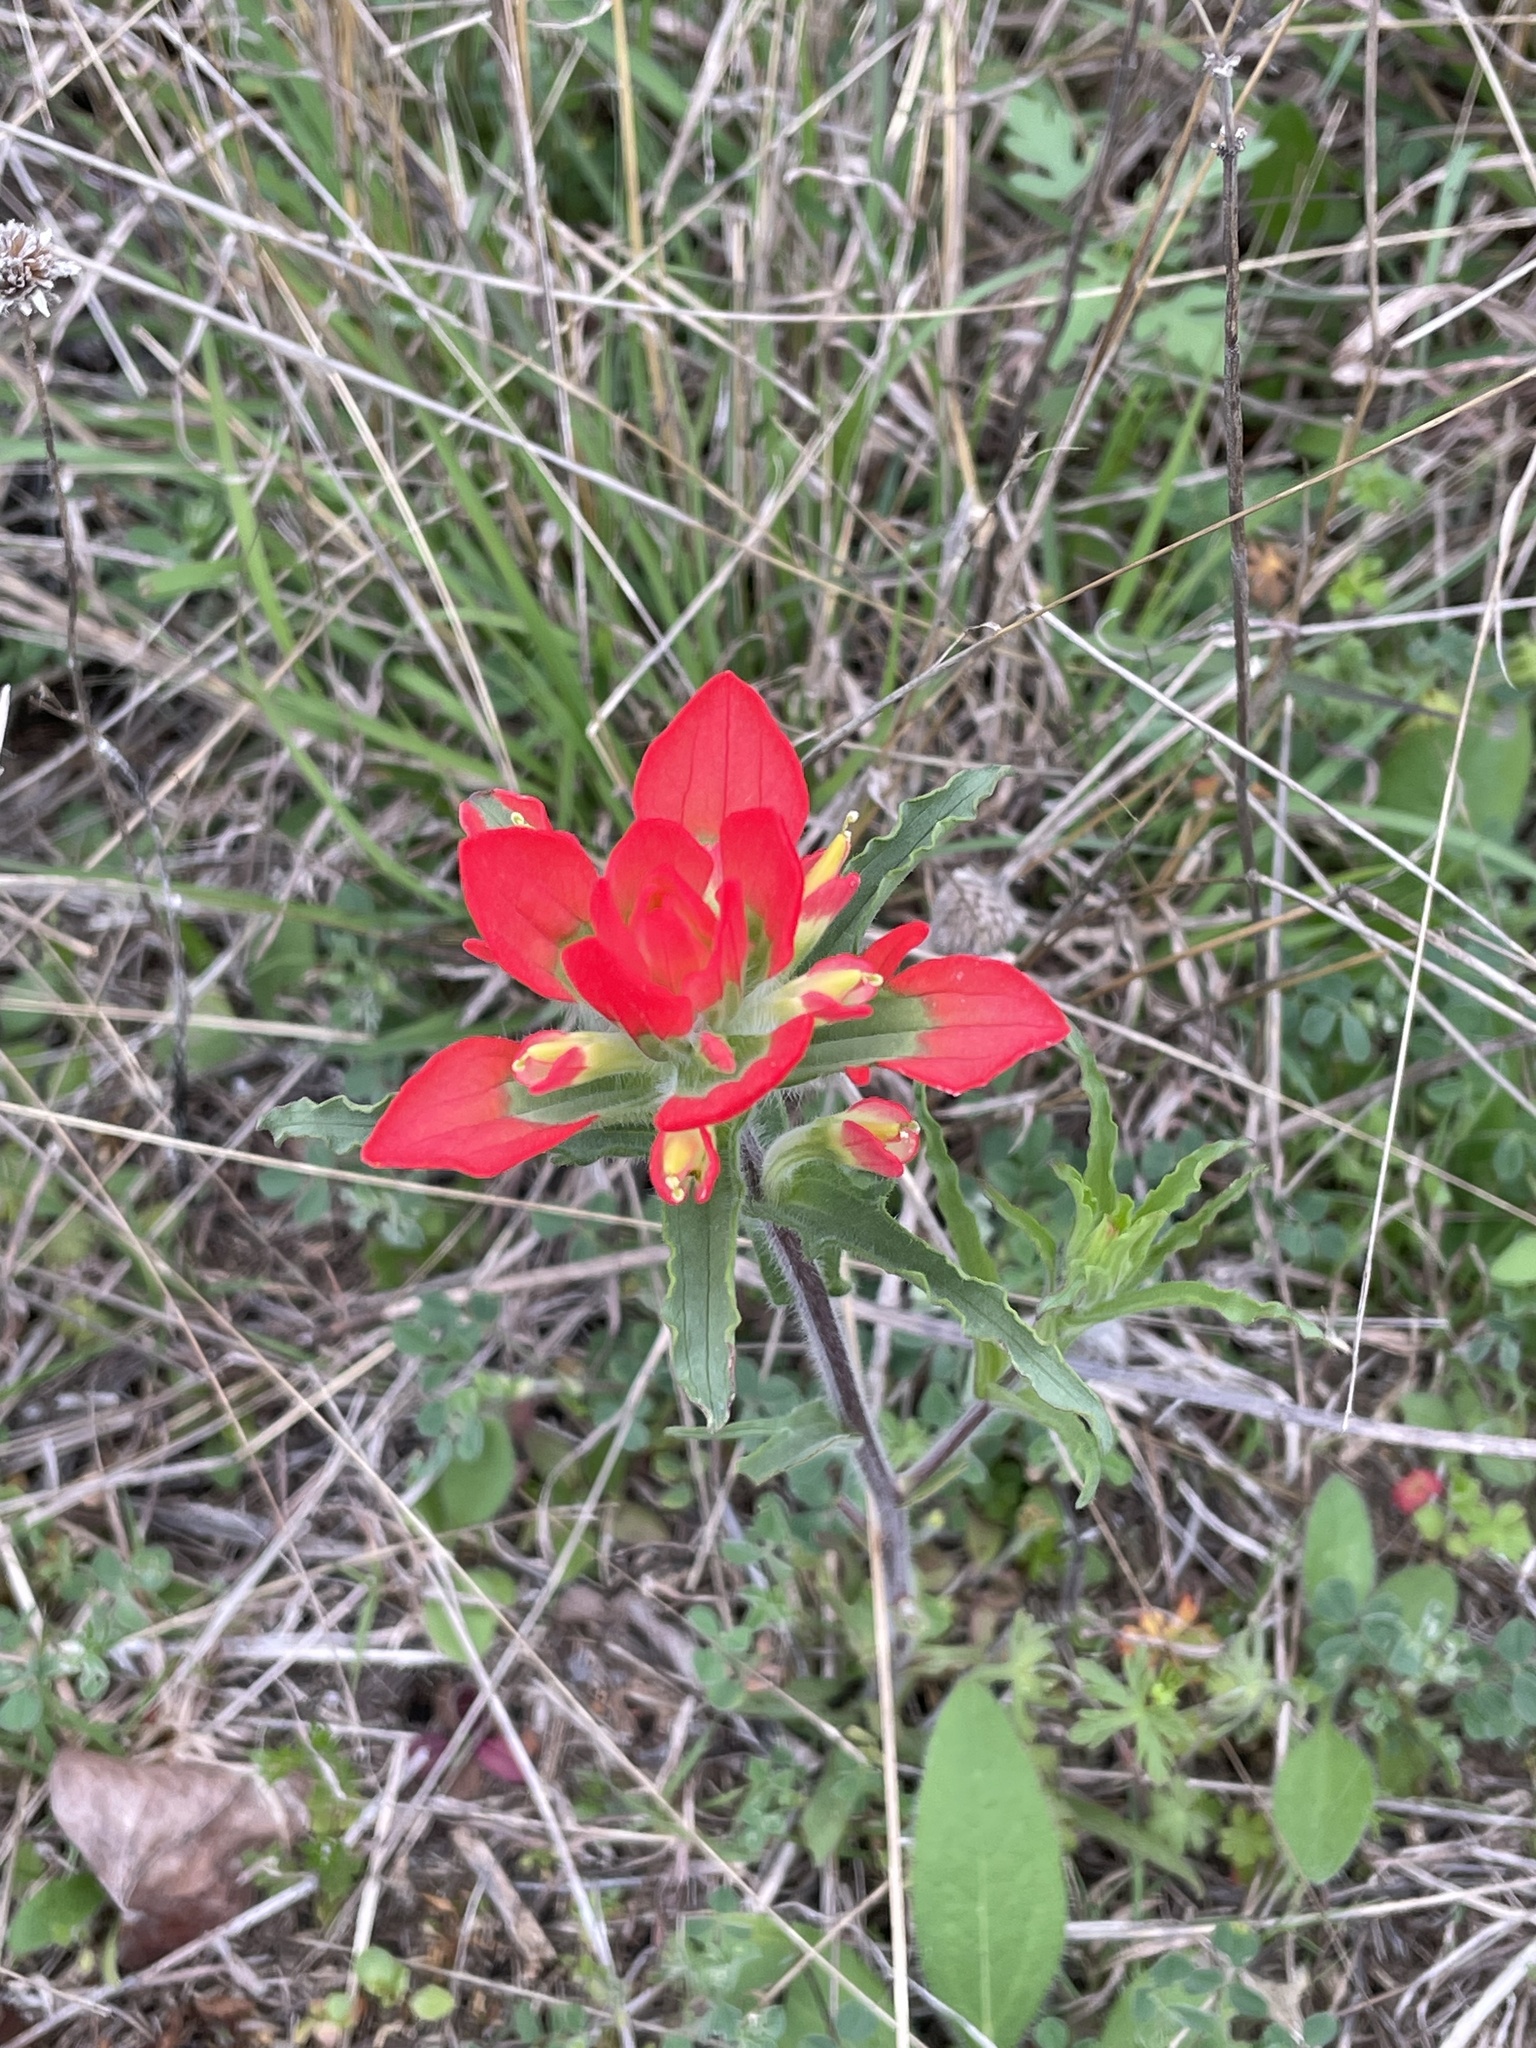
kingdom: Plantae
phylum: Tracheophyta
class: Magnoliopsida
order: Lamiales
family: Orobanchaceae
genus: Castilleja
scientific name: Castilleja indivisa
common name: Texas paintbrush
